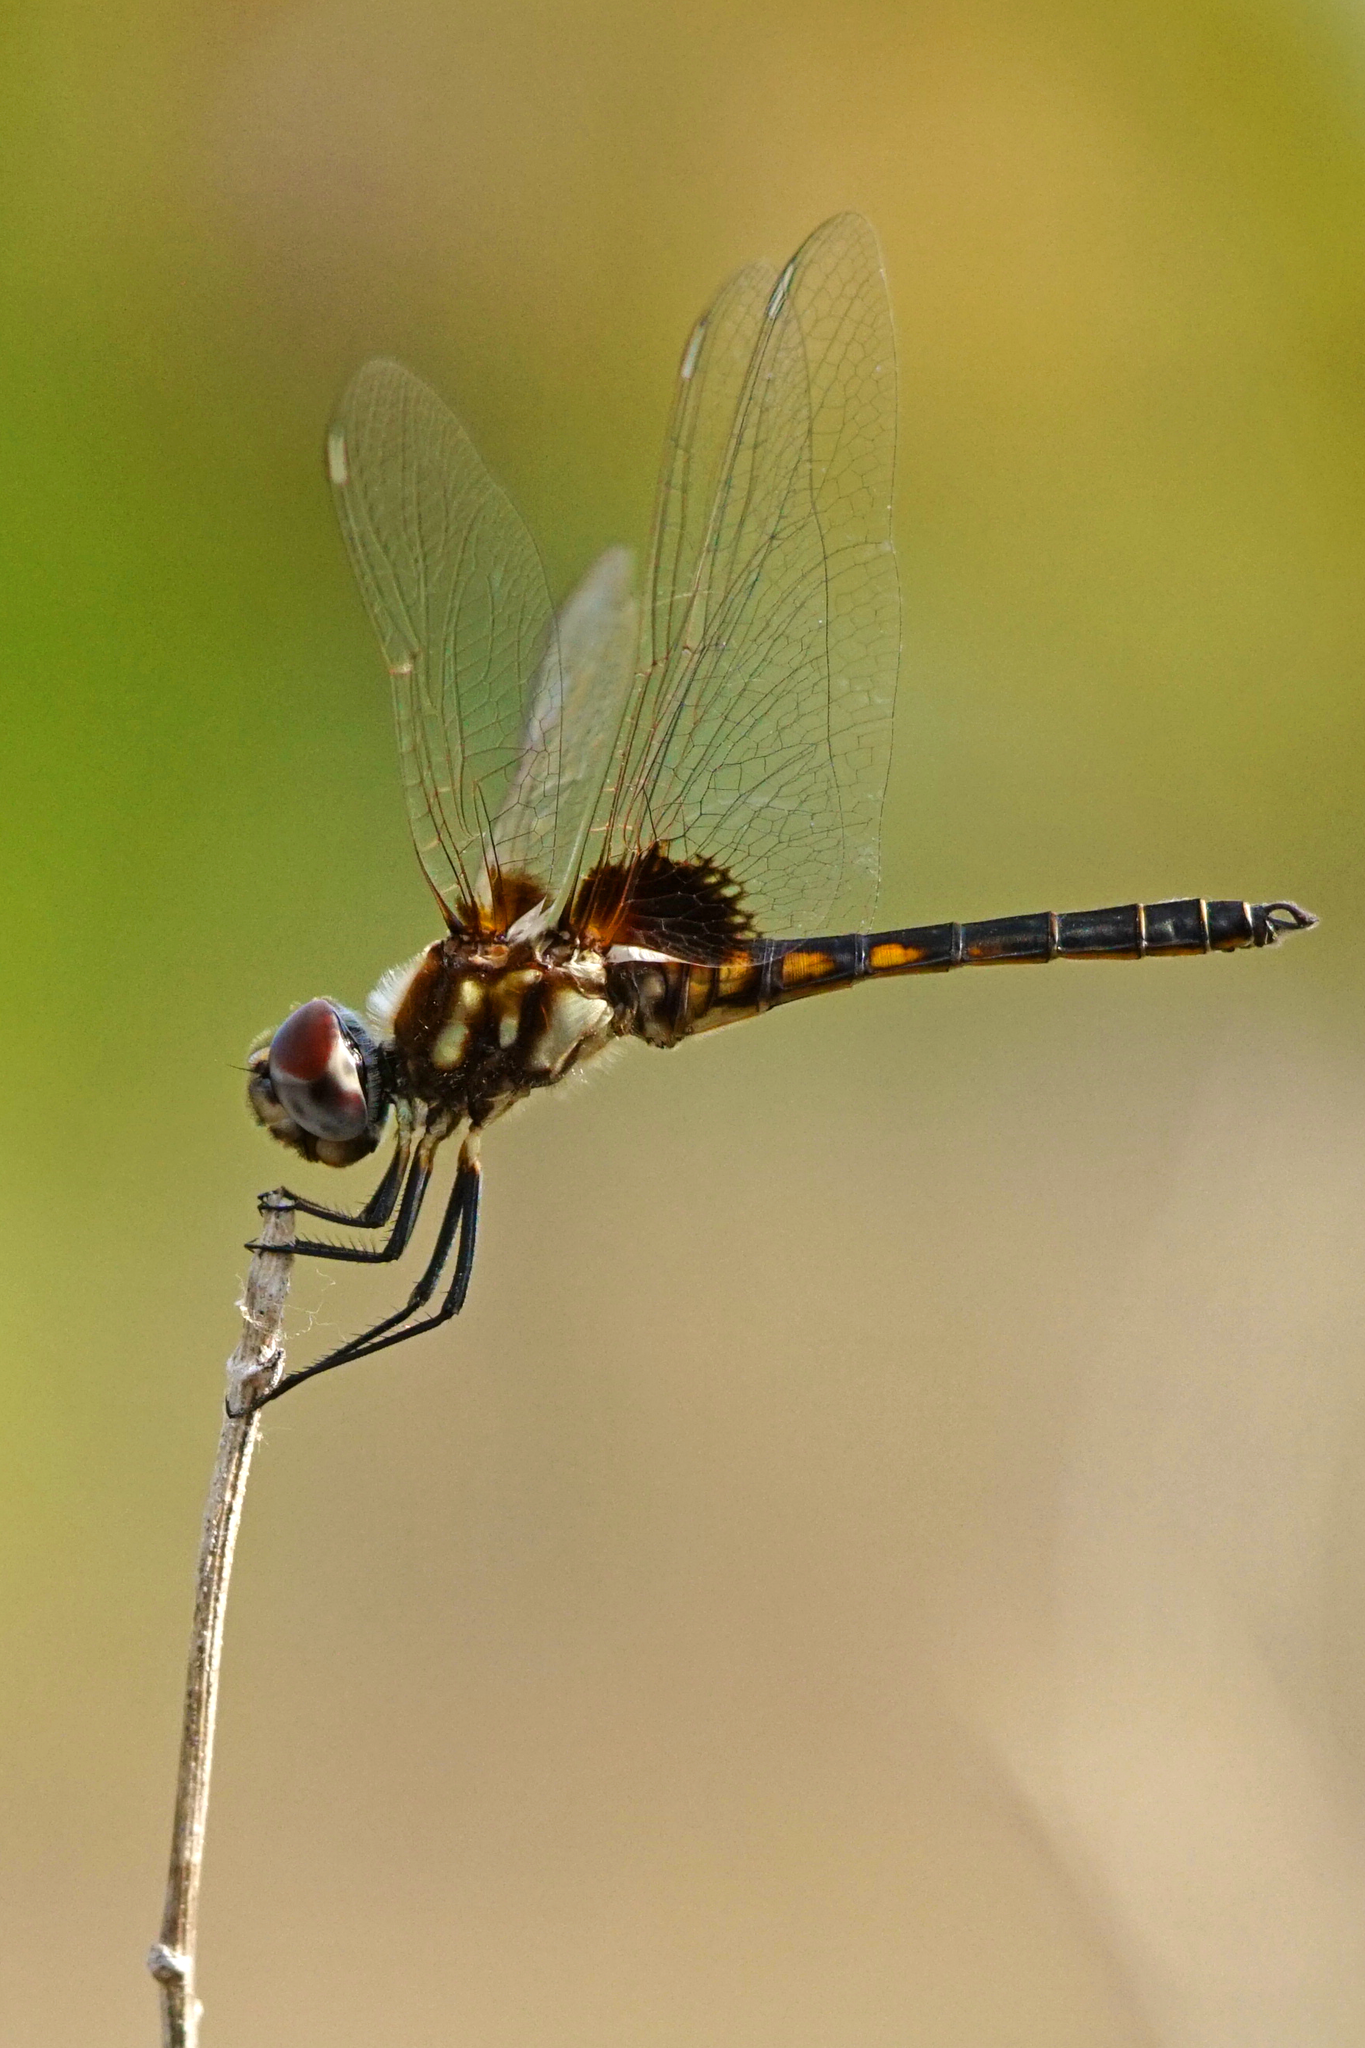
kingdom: Animalia
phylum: Arthropoda
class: Insecta
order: Odonata
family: Libellulidae
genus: Macrodiplax
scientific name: Macrodiplax balteata
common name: Marl pennant
